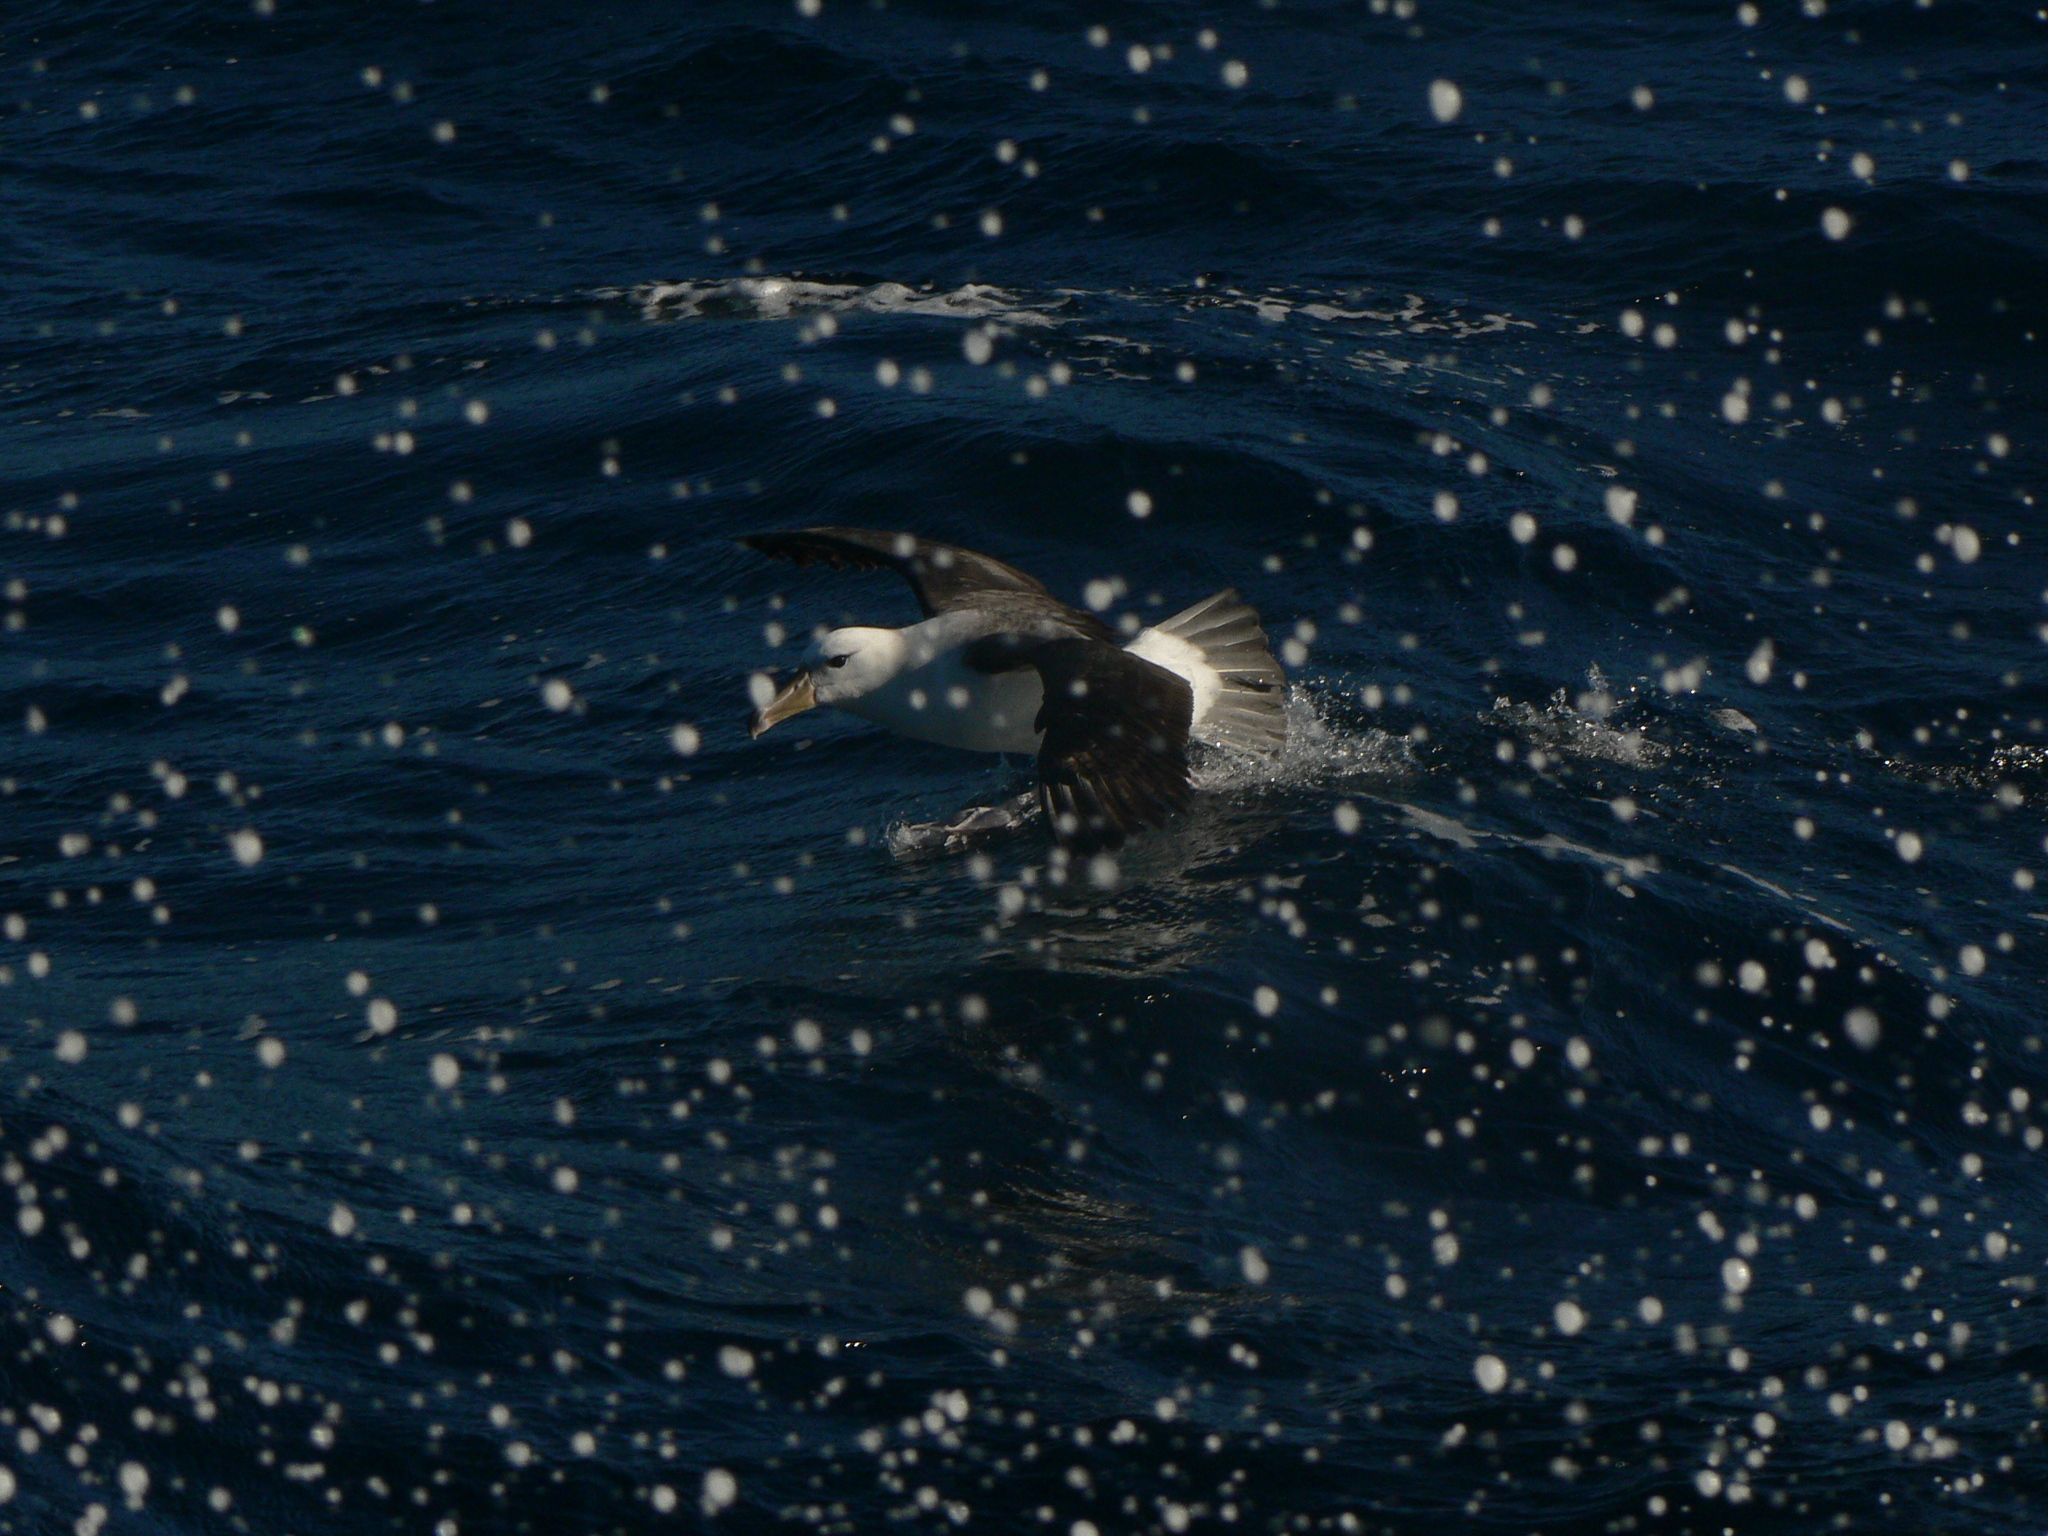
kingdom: Animalia
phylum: Chordata
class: Aves
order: Procellariiformes
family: Diomedeidae
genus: Thalassarche
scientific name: Thalassarche cauta
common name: Shy albatross
